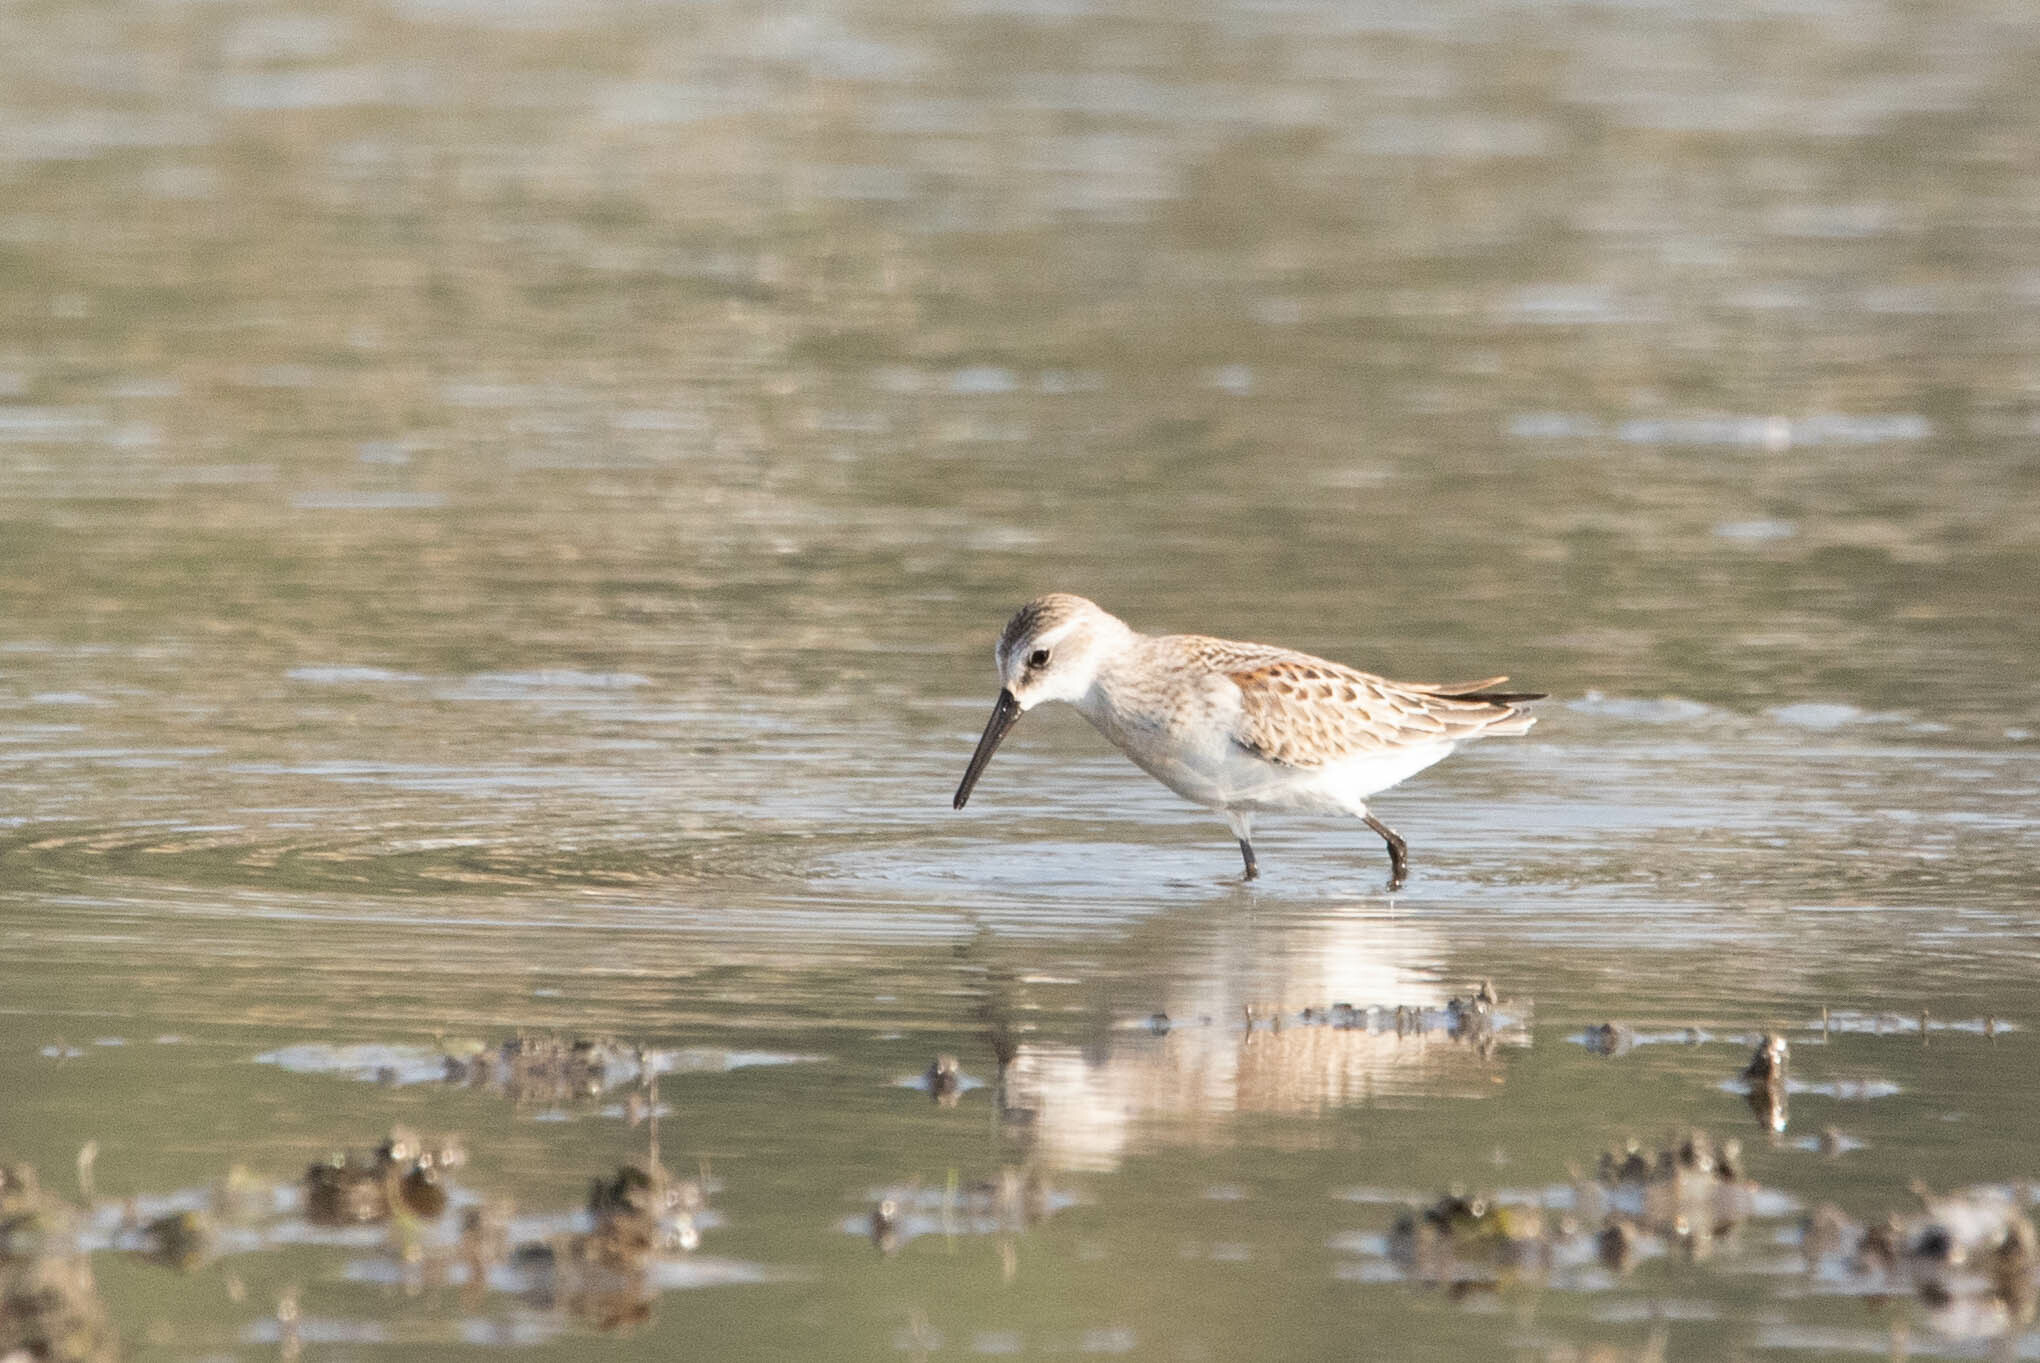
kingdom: Animalia
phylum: Chordata
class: Aves
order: Charadriiformes
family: Scolopacidae
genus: Calidris
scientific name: Calidris mauri
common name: Western sandpiper
